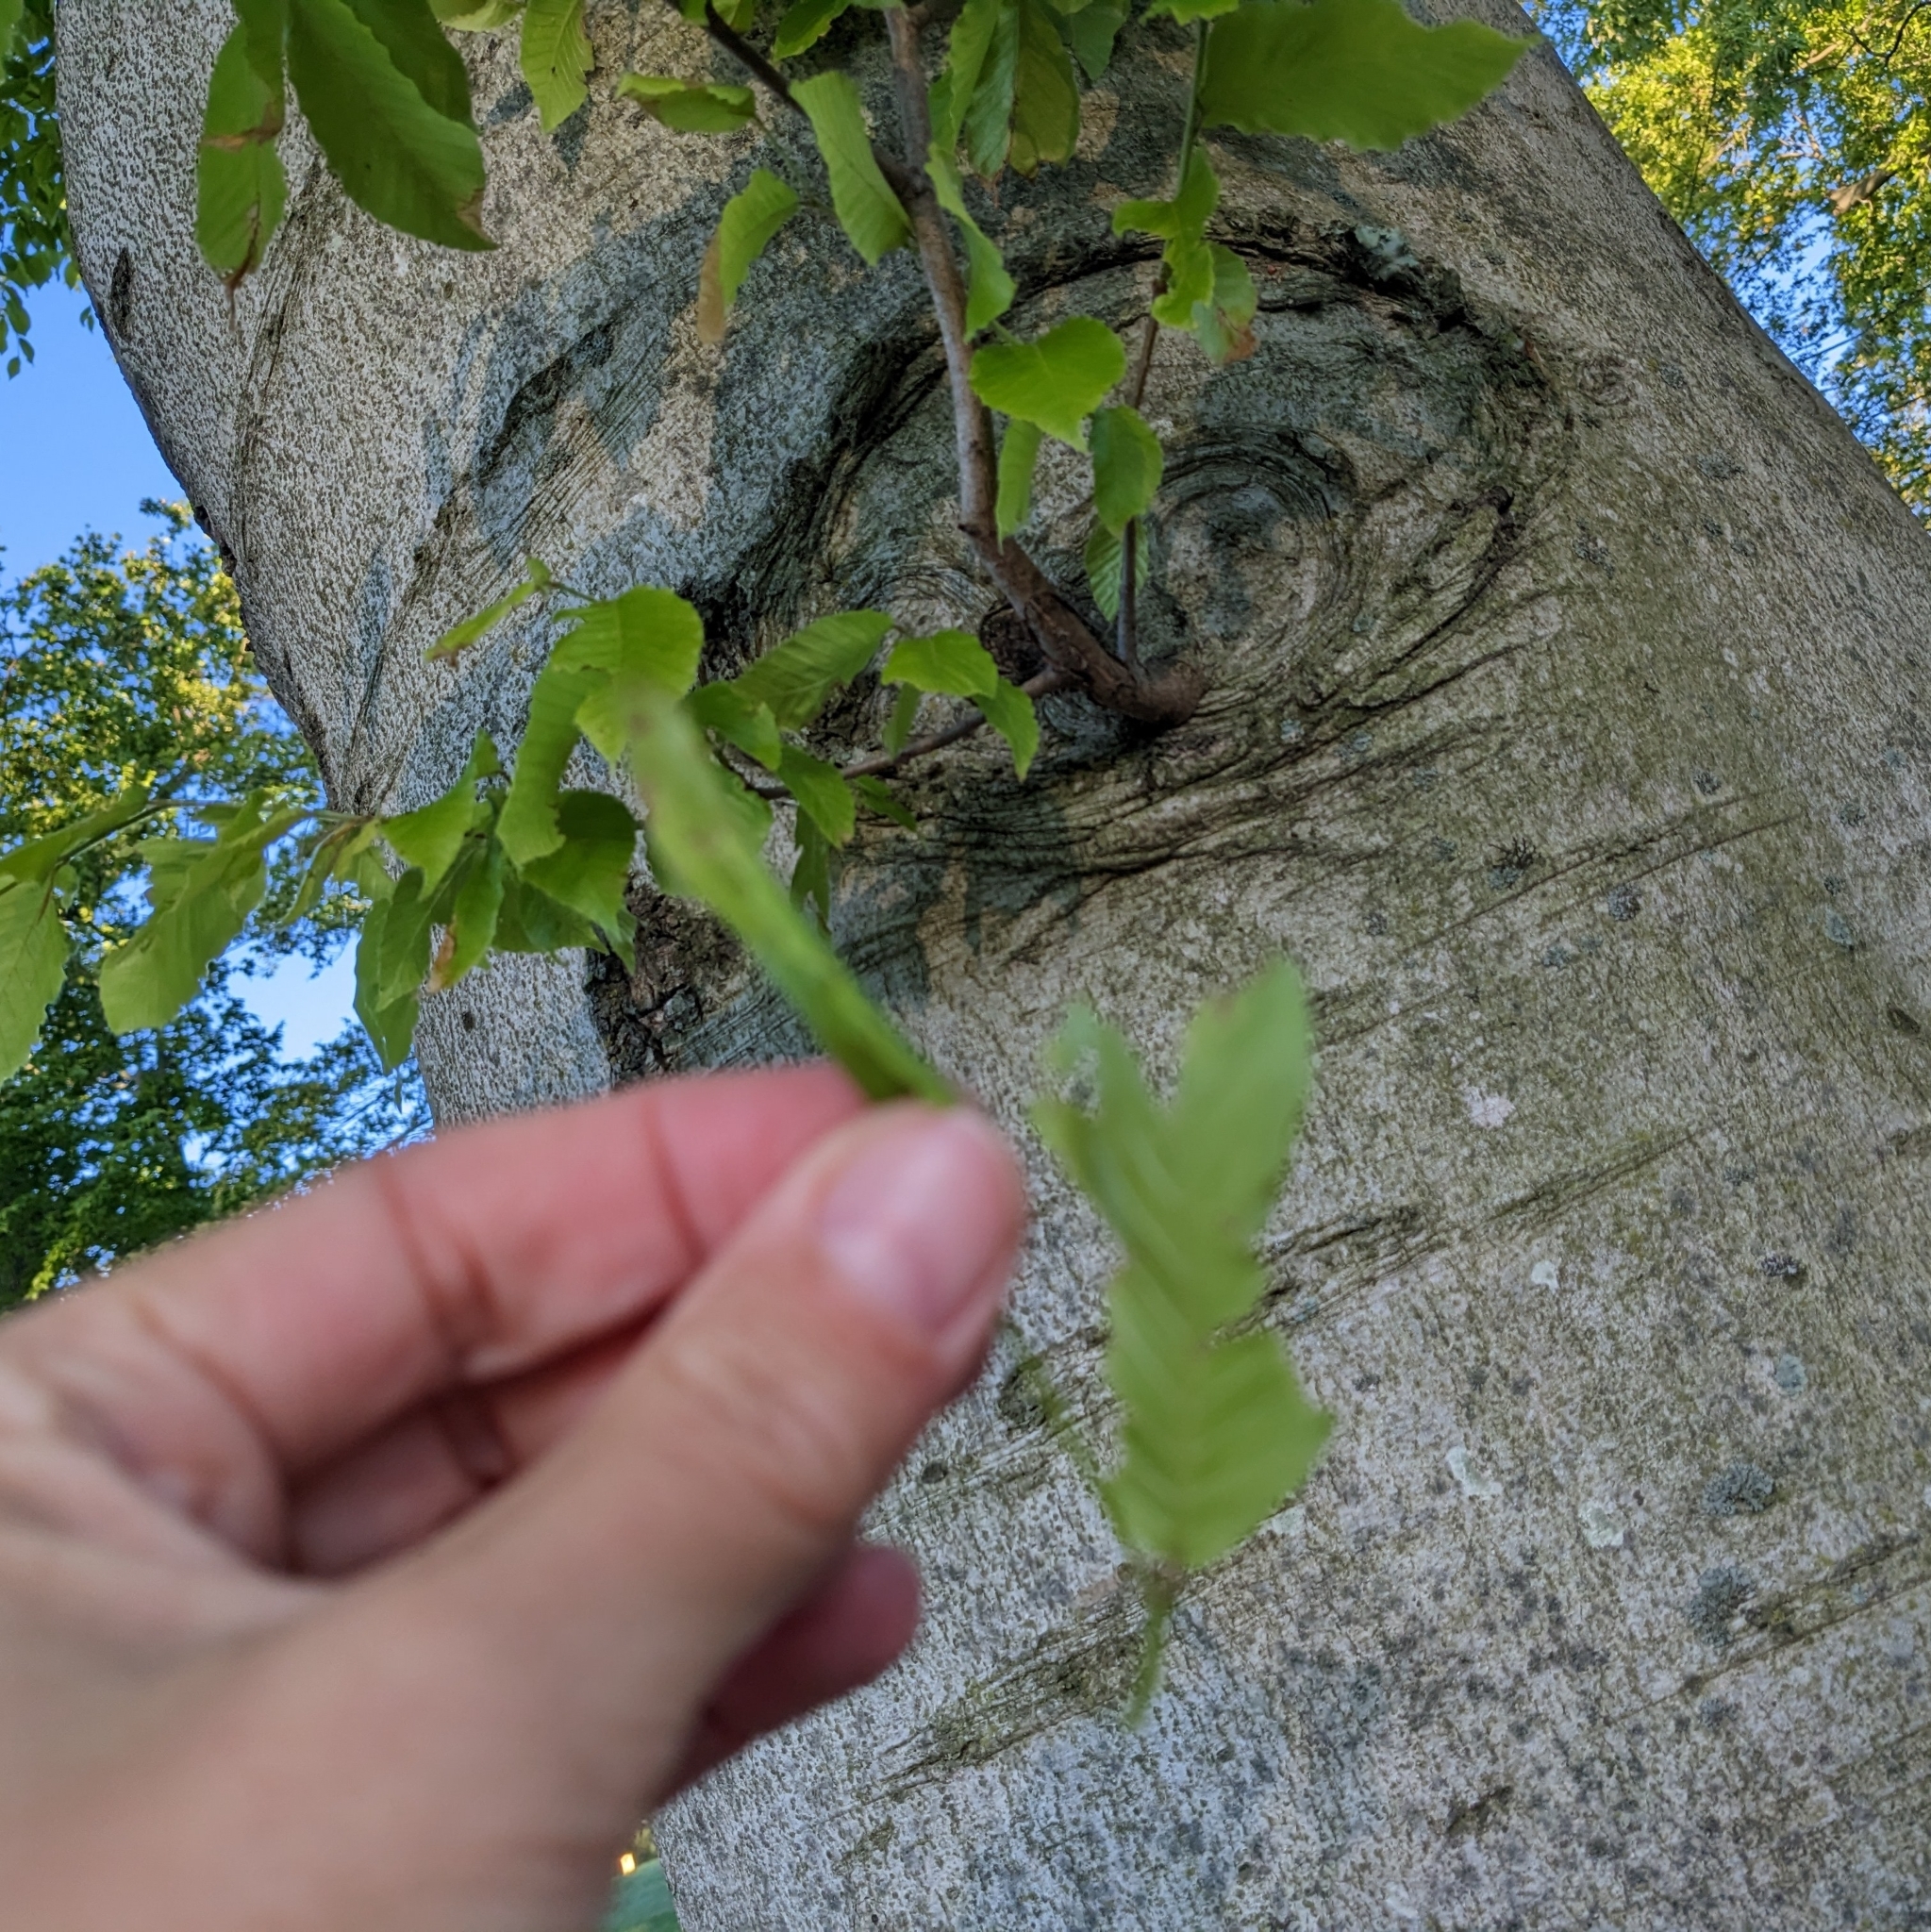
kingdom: Animalia
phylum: Arthropoda
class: Insecta
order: Coleoptera
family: Curculionidae
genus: Cyrtepistomus
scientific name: Cyrtepistomus castaneus
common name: Weevil
